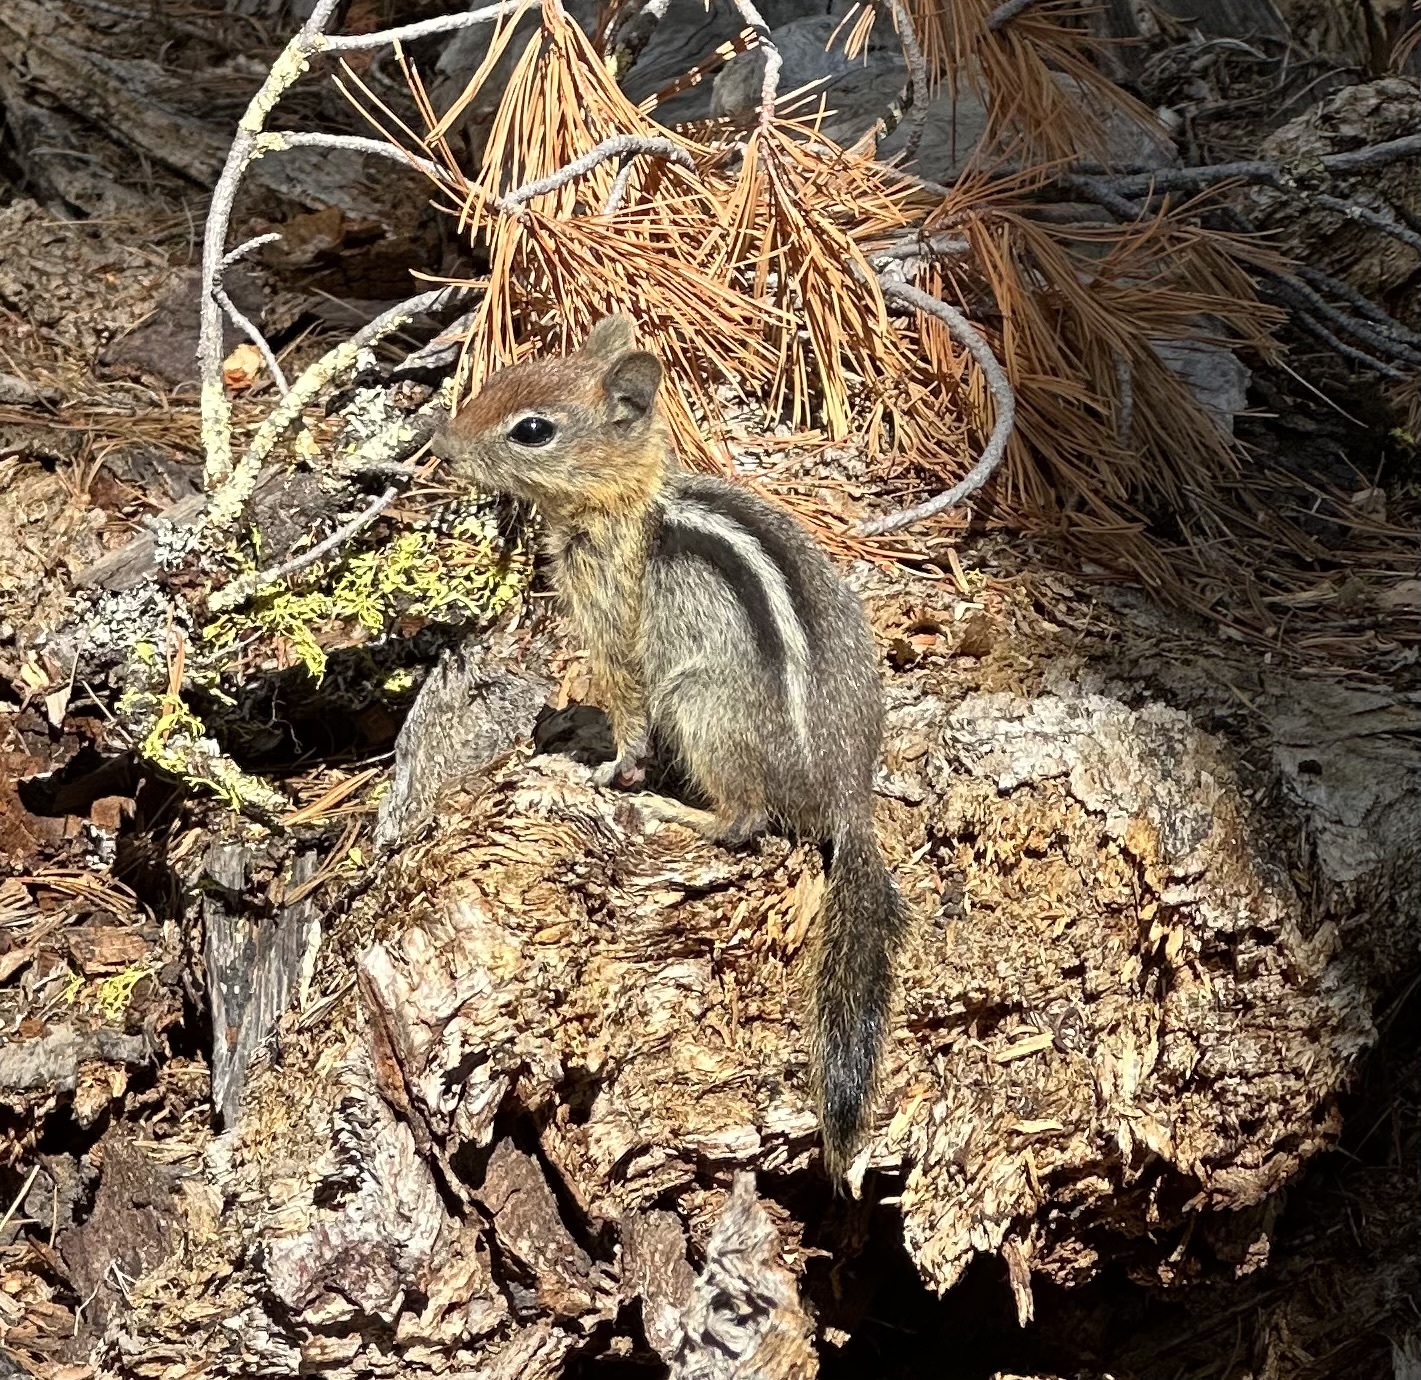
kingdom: Animalia
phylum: Chordata
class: Mammalia
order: Rodentia
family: Sciuridae
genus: Callospermophilus
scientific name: Callospermophilus lateralis
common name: Golden-mantled ground squirrel
